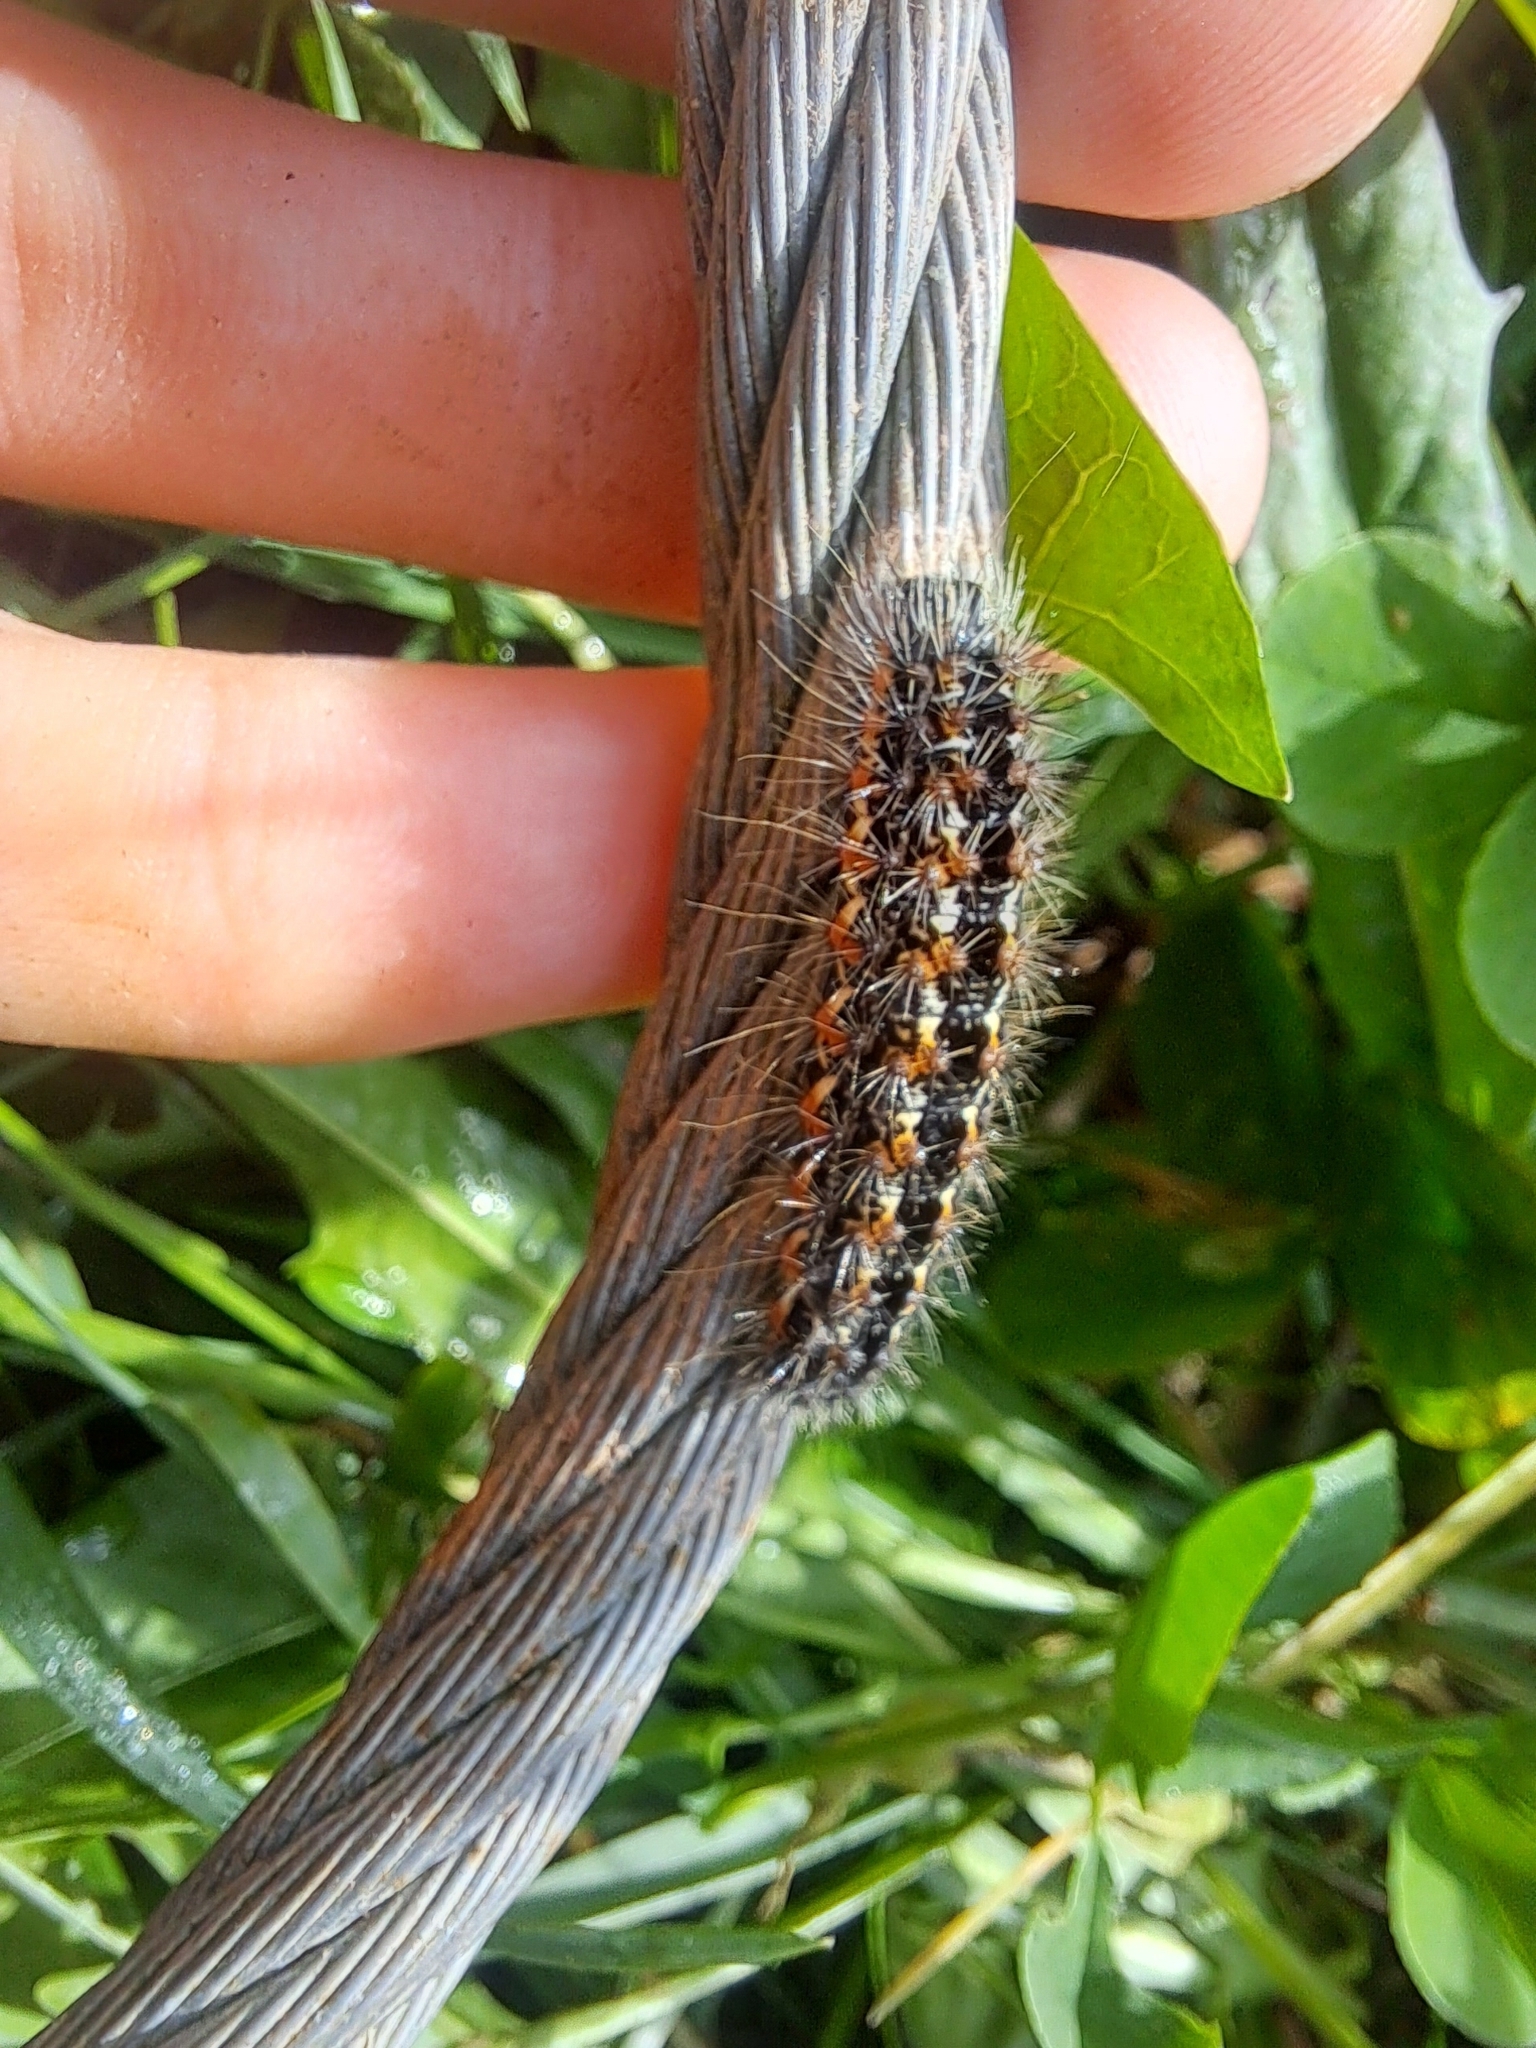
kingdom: Animalia
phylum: Arthropoda
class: Insecta
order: Lepidoptera
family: Noctuidae
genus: Acronicta
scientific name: Acronicta insularis
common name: Henry's marsh moth
